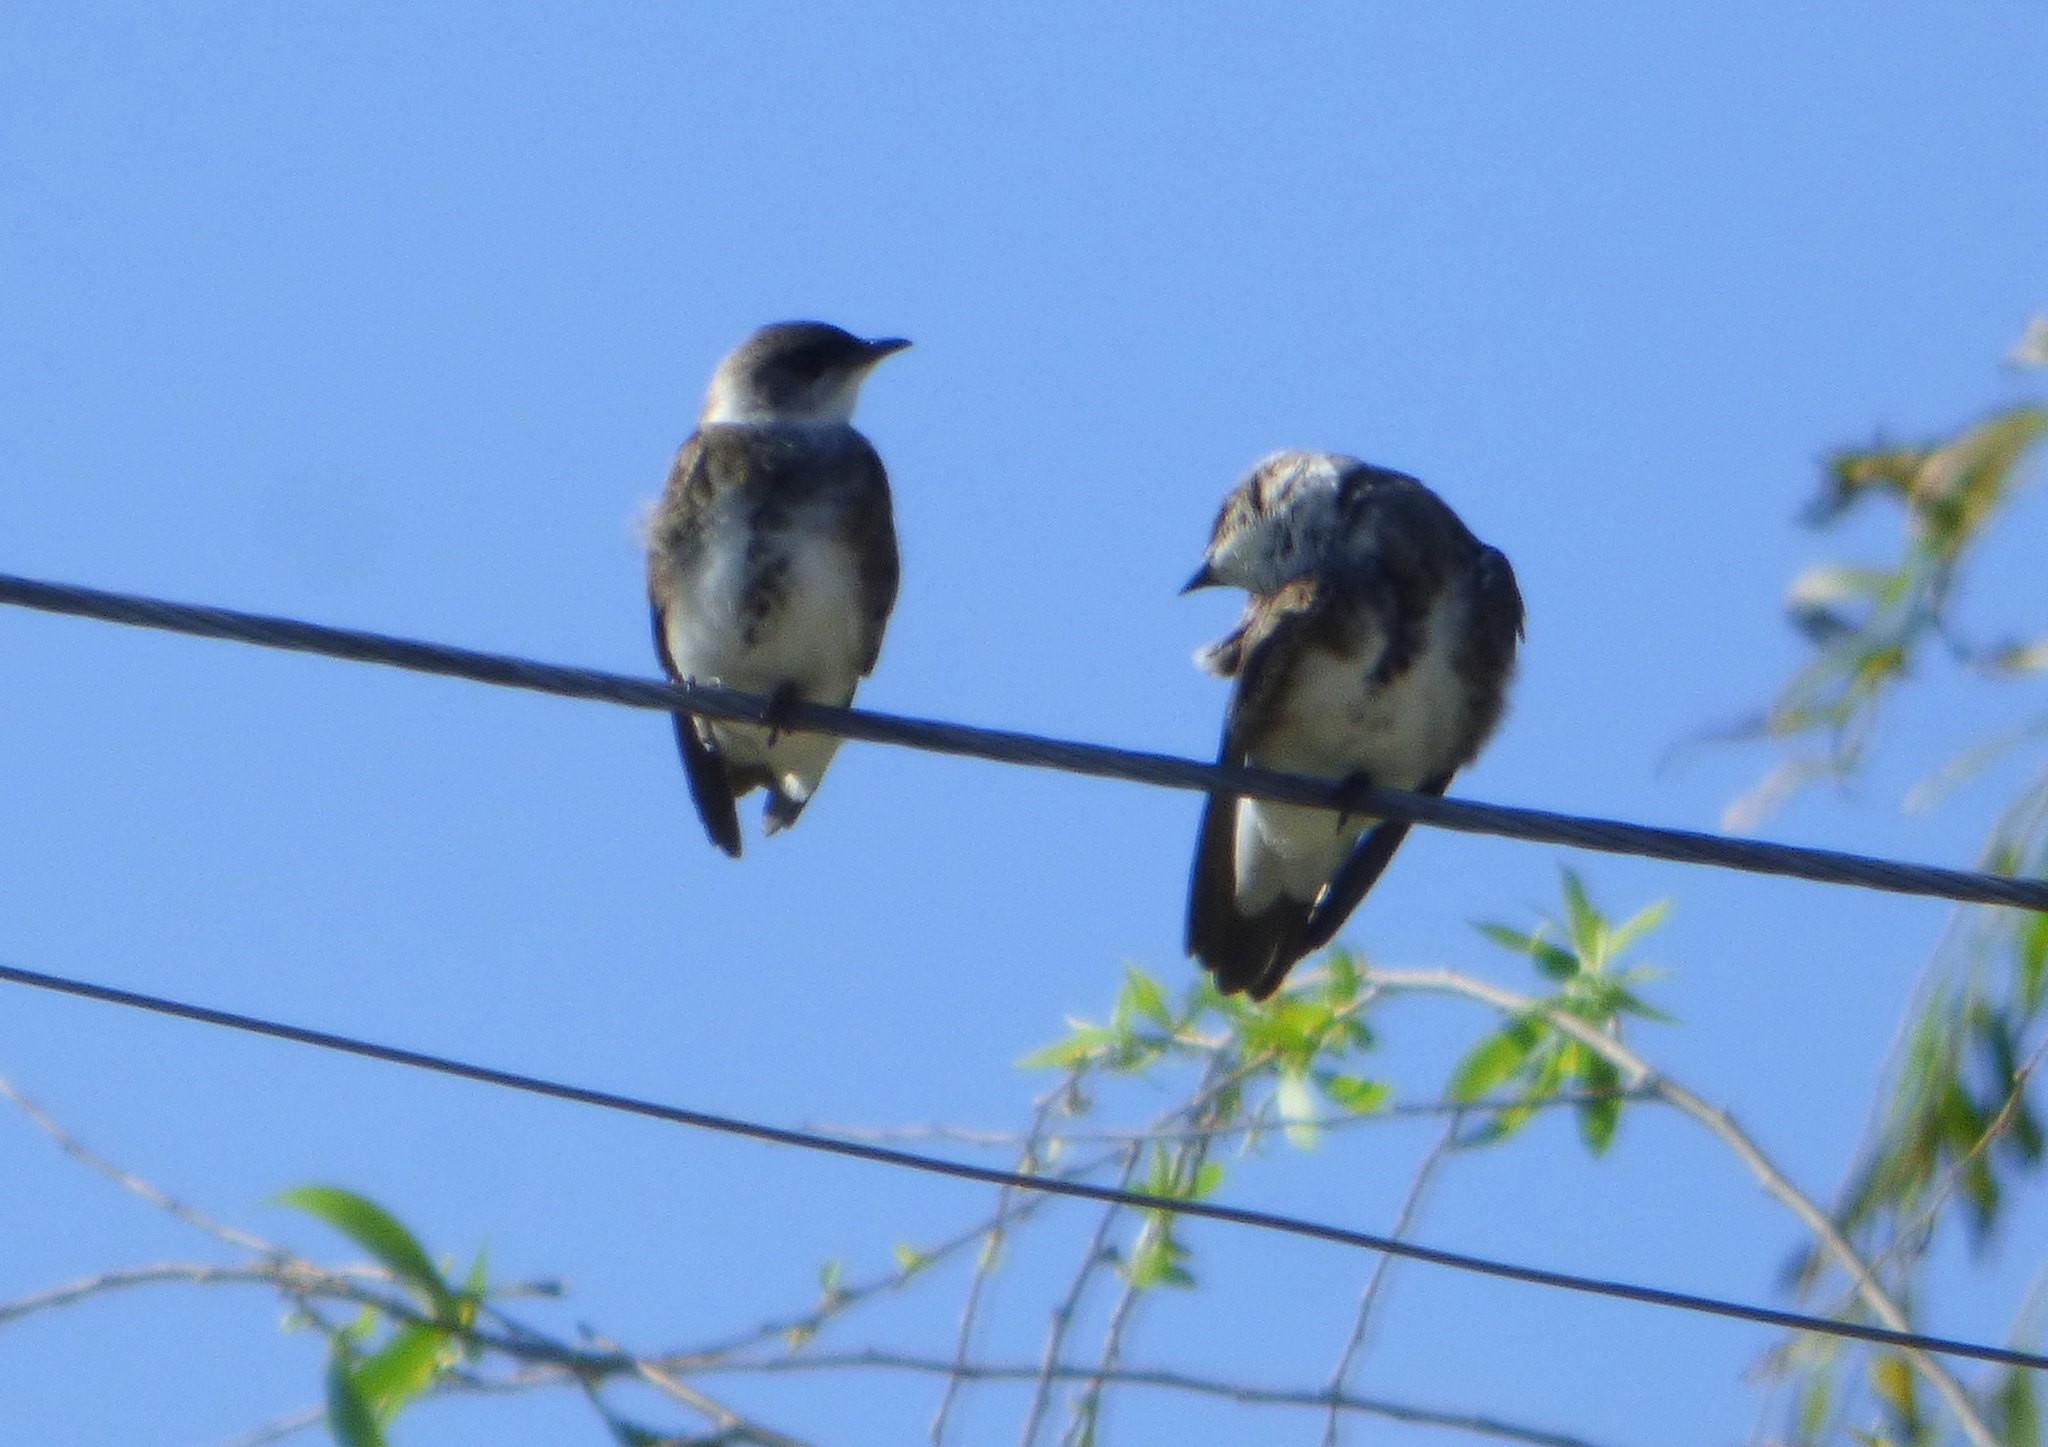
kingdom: Animalia
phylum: Chordata
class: Aves
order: Passeriformes
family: Hirundinidae
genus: Progne
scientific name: Progne tapera
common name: Brown-chested martin
